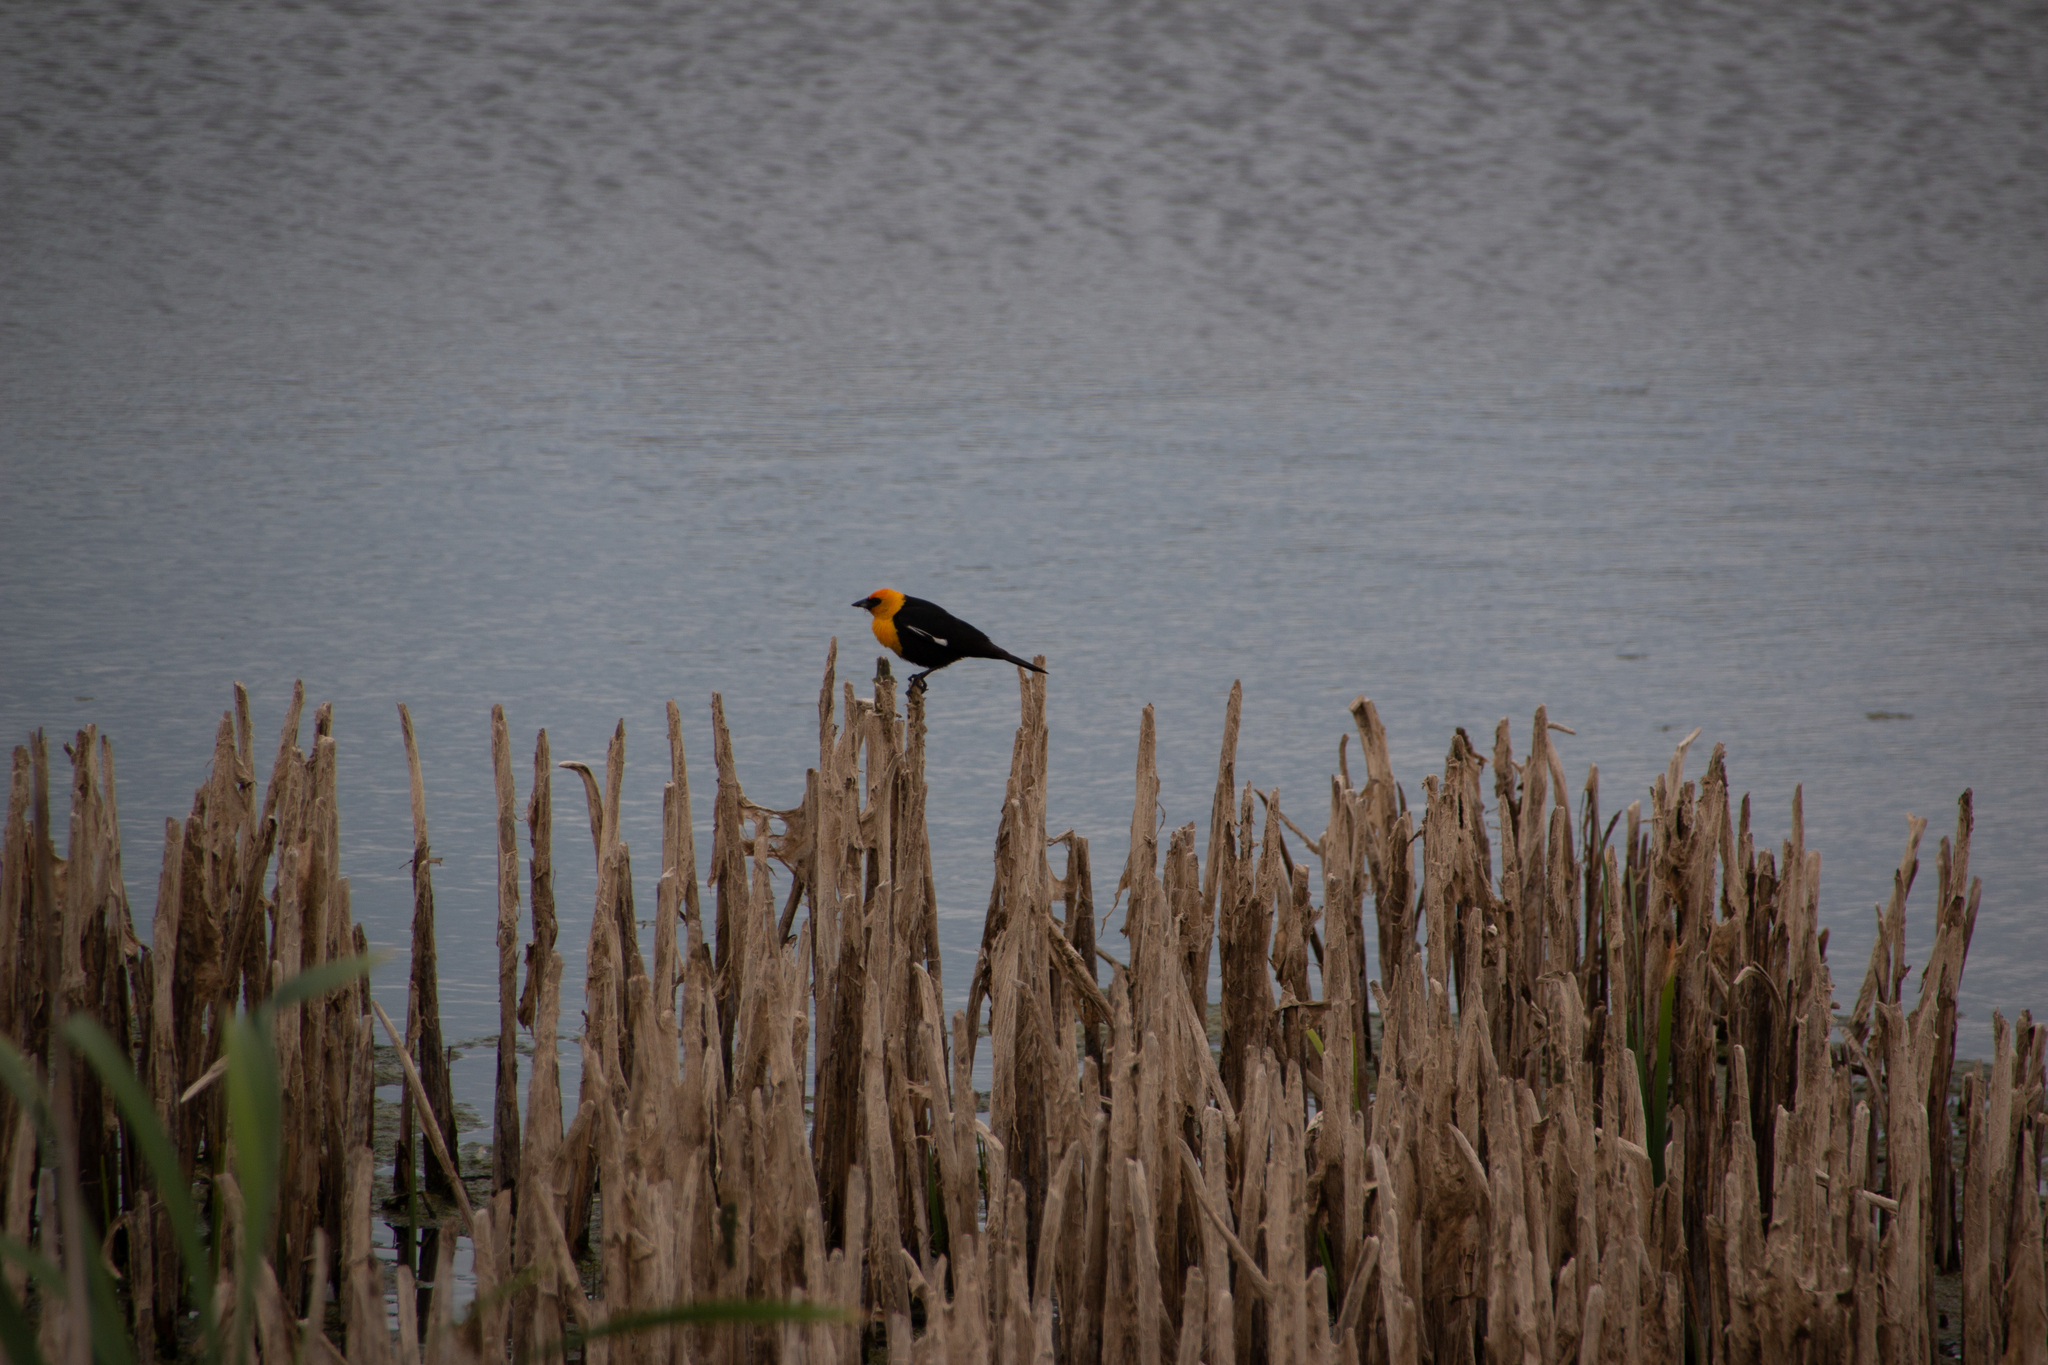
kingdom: Animalia
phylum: Chordata
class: Aves
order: Passeriformes
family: Icteridae
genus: Xanthocephalus
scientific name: Xanthocephalus xanthocephalus
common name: Yellow-headed blackbird
